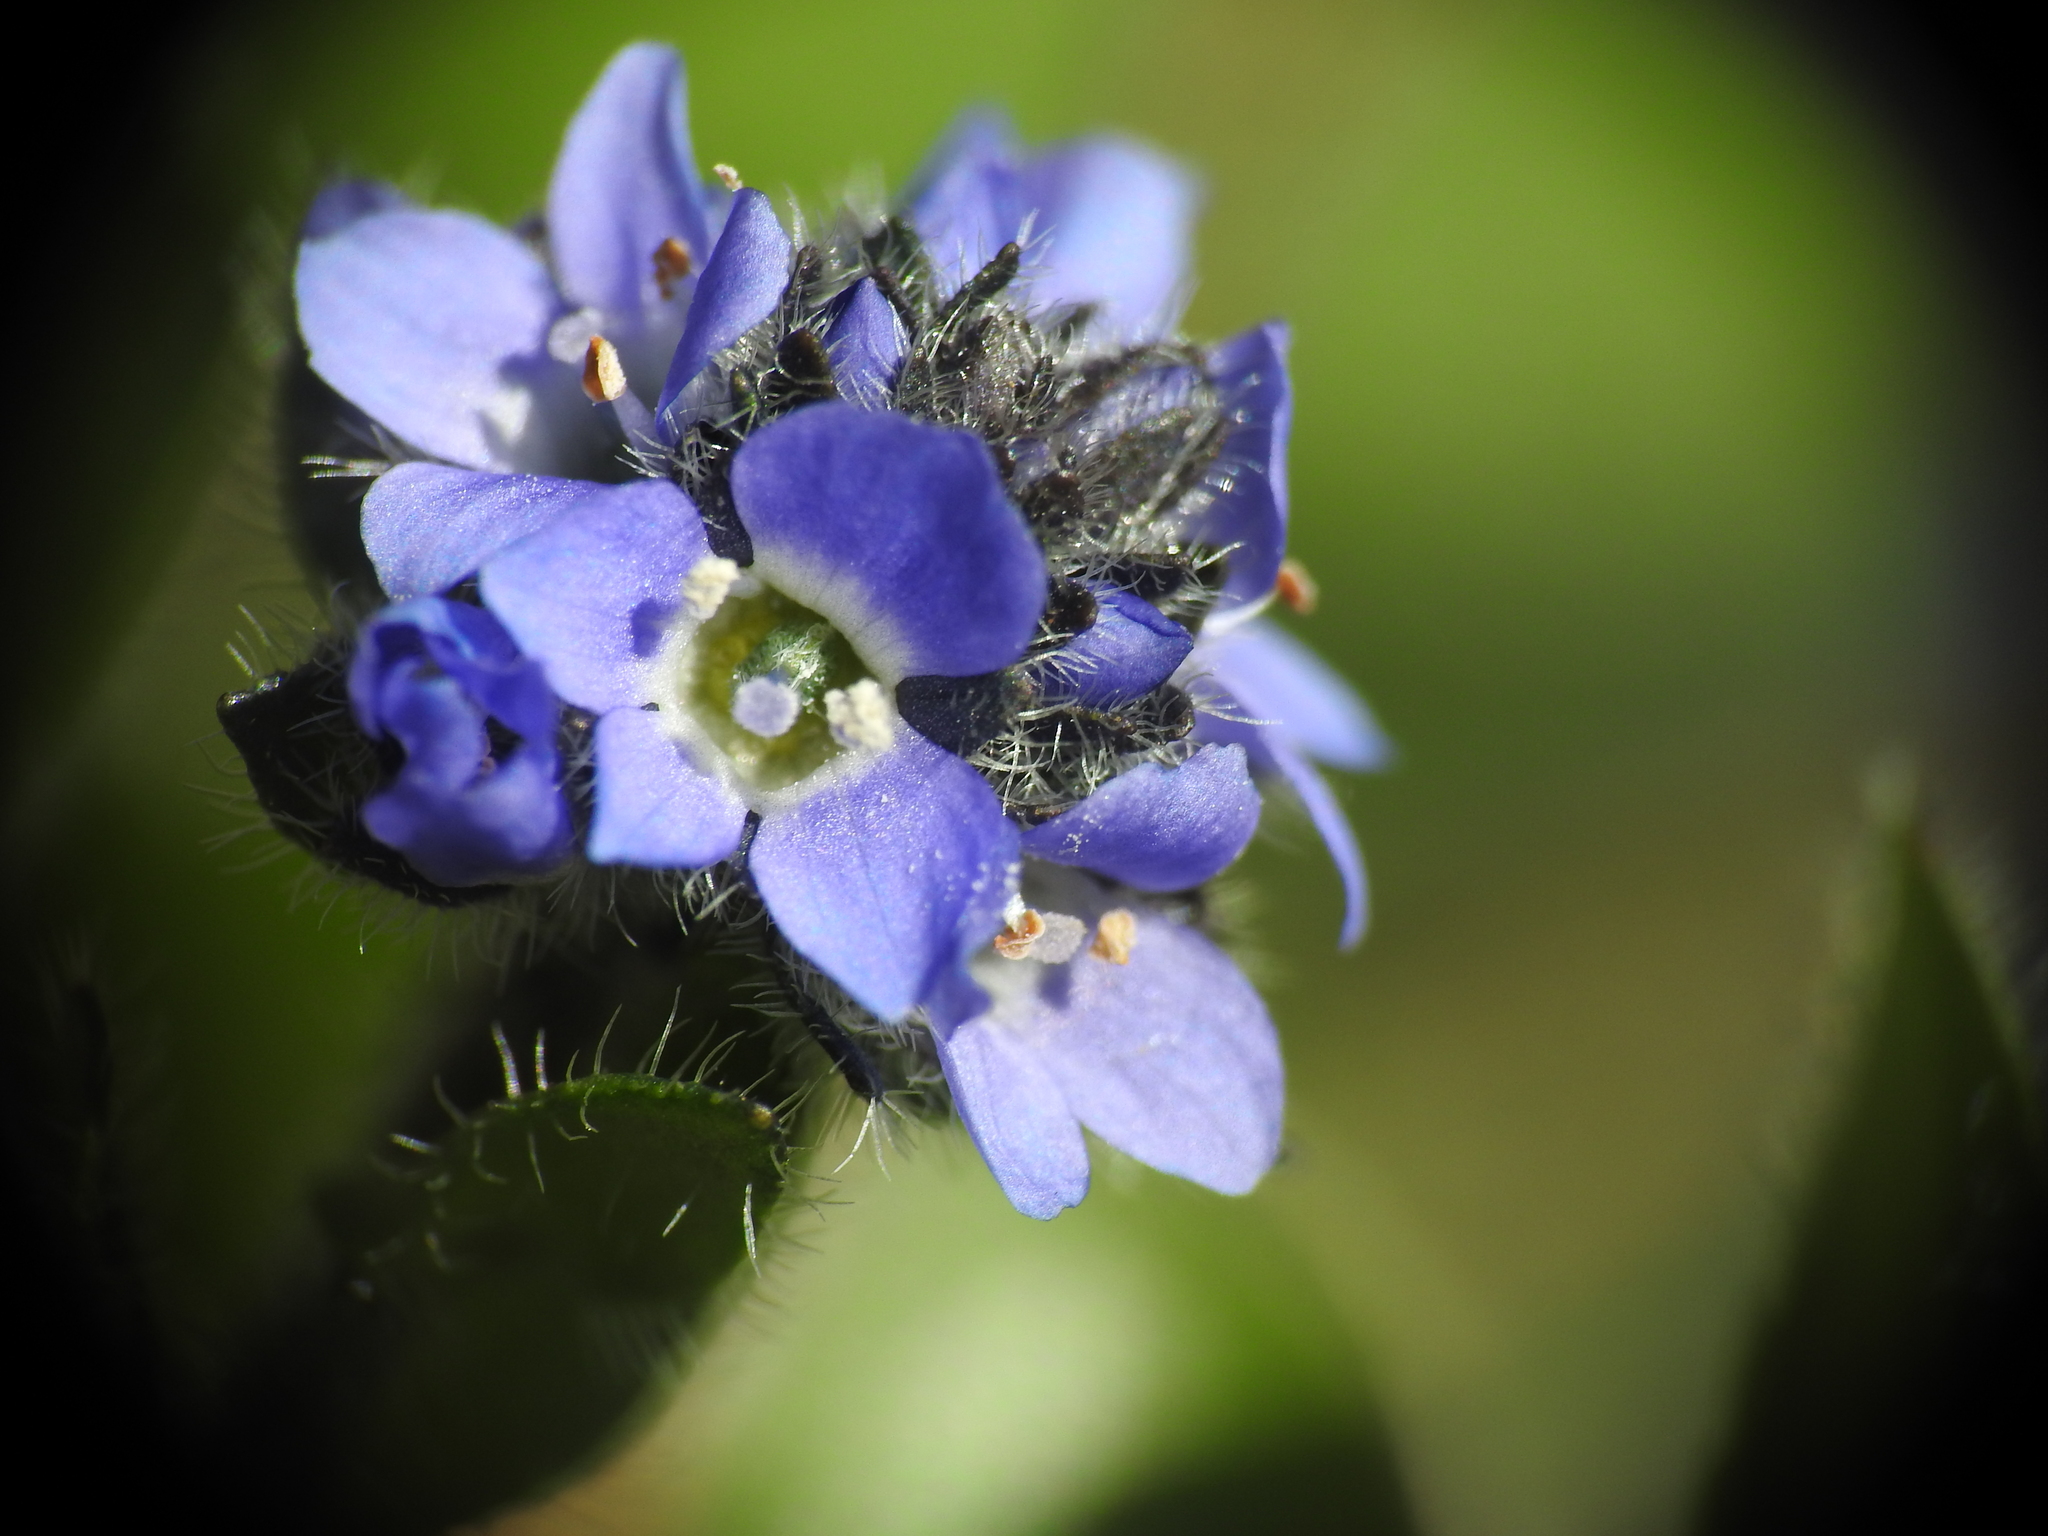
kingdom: Plantae
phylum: Tracheophyta
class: Magnoliopsida
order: Lamiales
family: Plantaginaceae
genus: Veronica
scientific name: Veronica alpina
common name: Alpine speedwell
